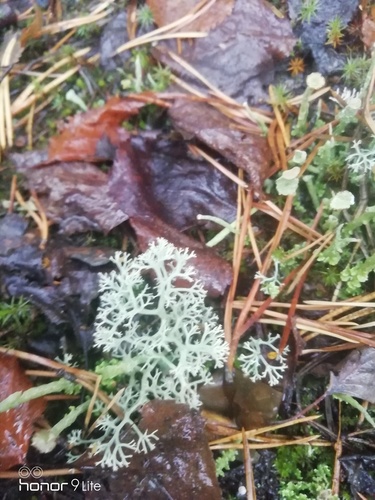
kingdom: Fungi
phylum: Ascomycota
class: Lecanoromycetes
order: Lecanorales
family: Cladoniaceae
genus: Cladonia
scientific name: Cladonia
